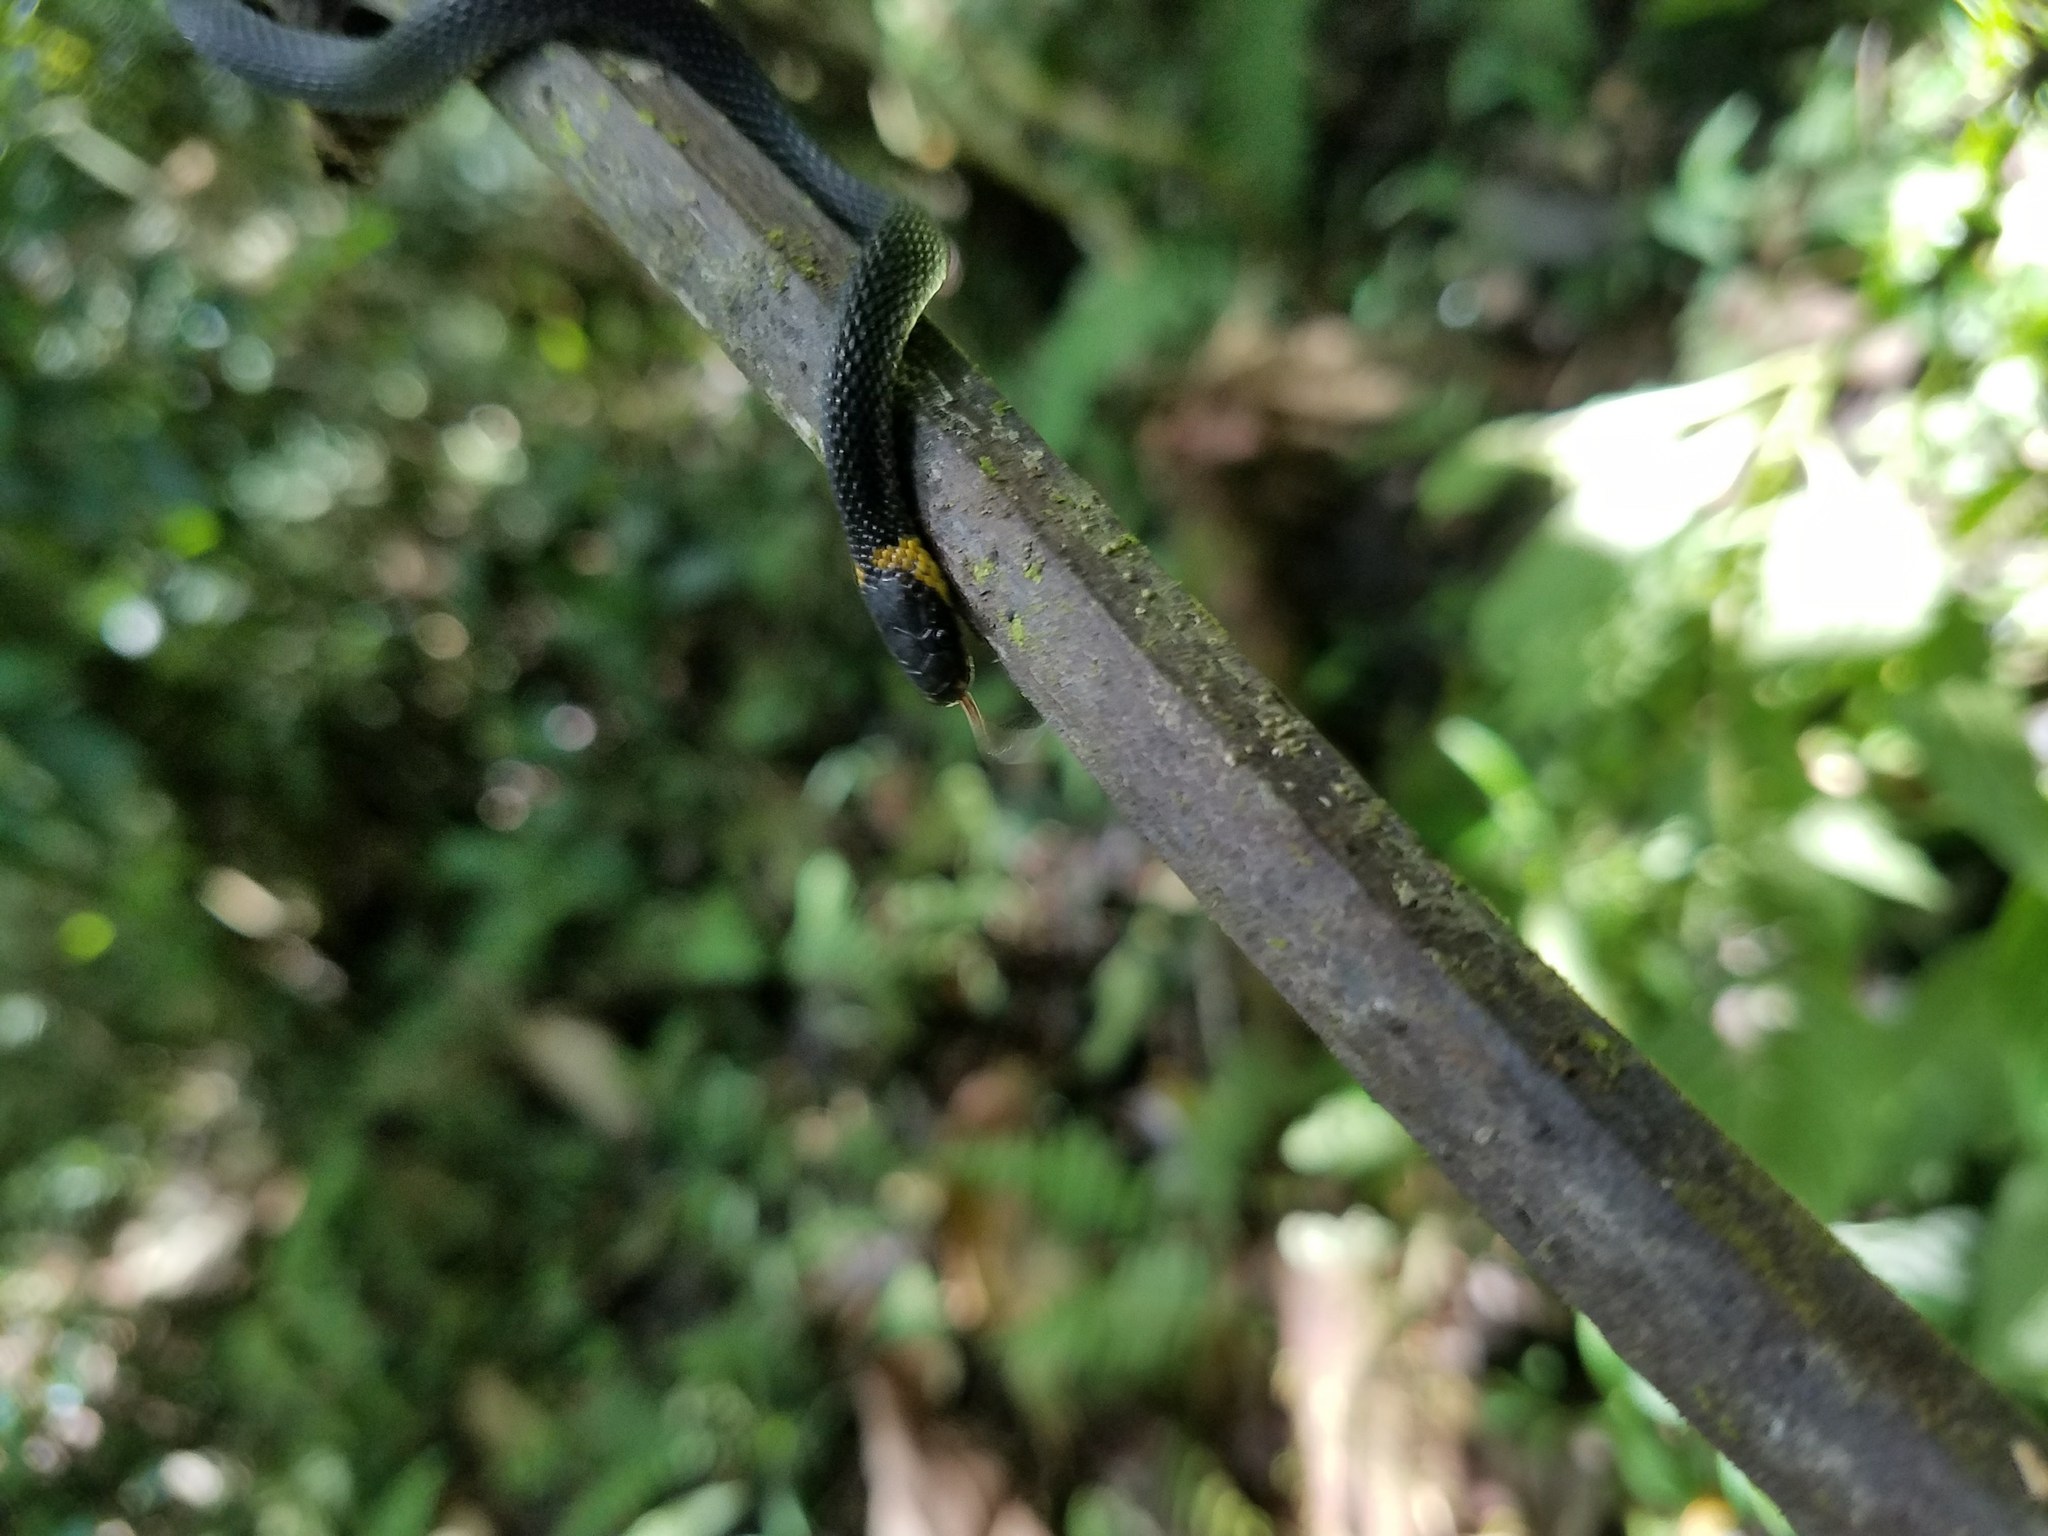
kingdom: Animalia
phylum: Chordata
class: Squamata
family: Colubridae
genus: Ninia
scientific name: Ninia diademata
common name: Ringneck coffee snake
